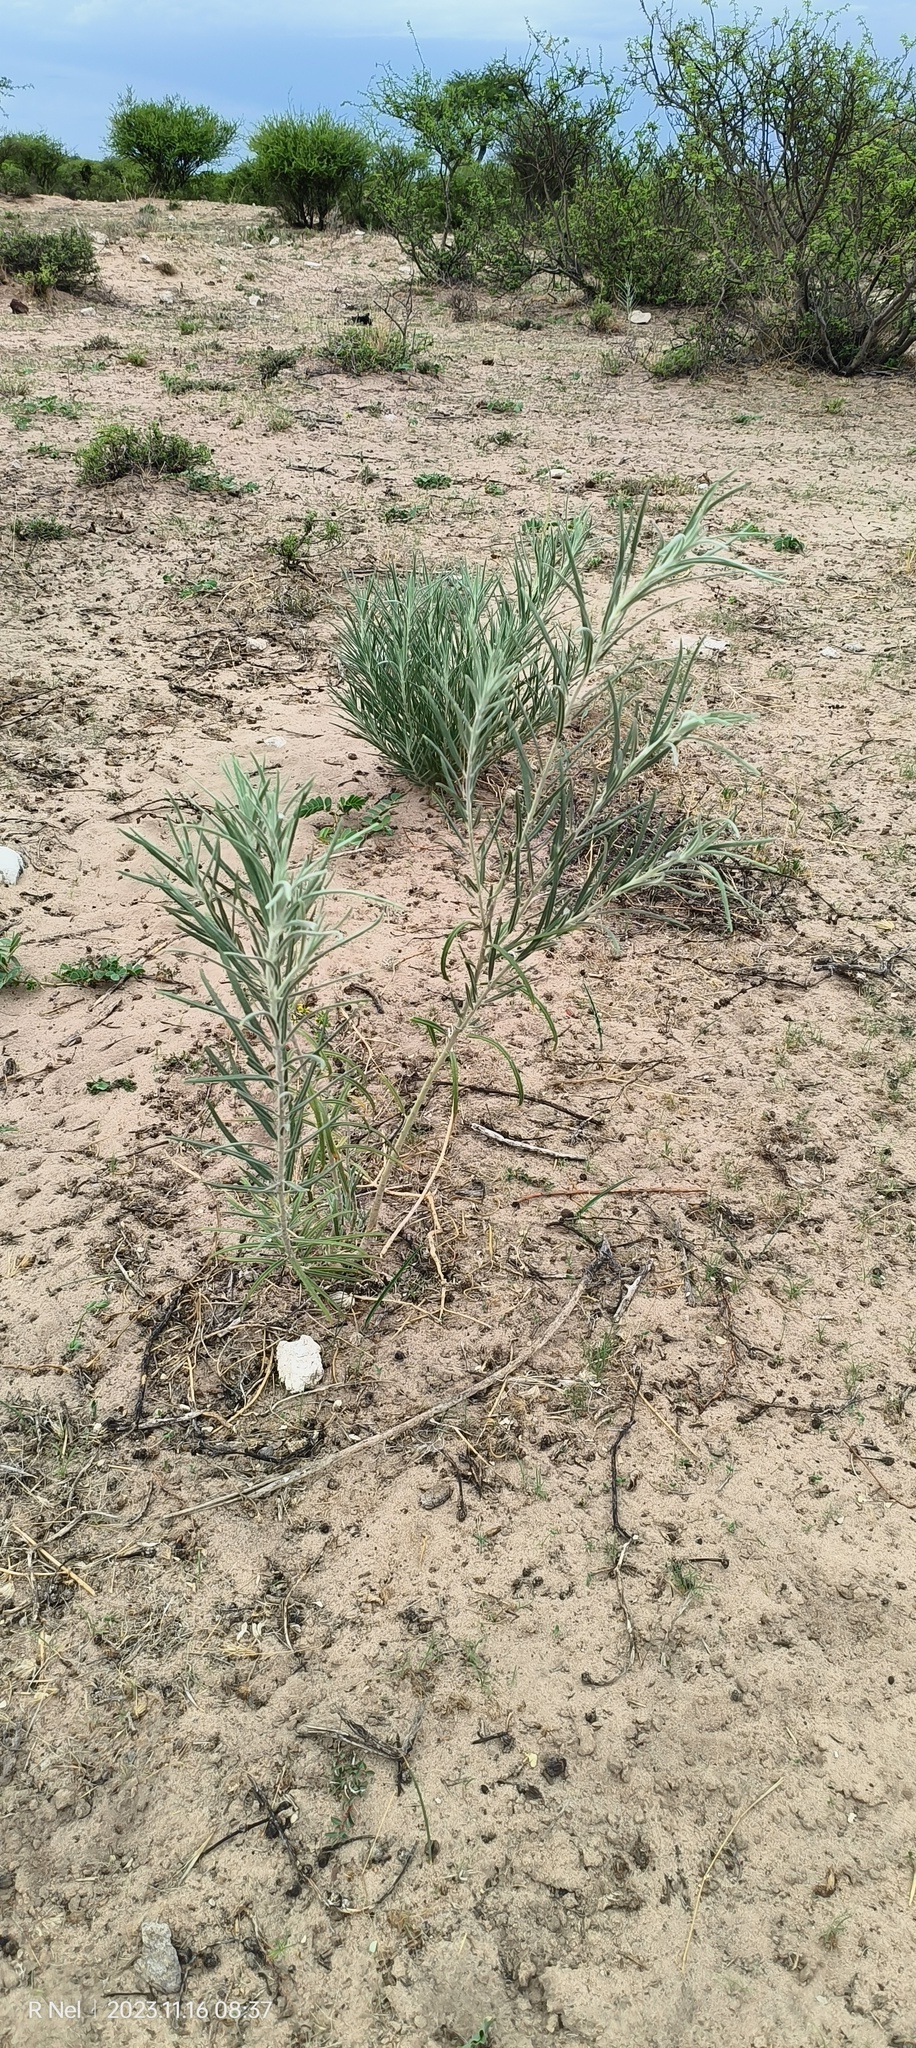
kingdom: Plantae
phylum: Tracheophyta
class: Magnoliopsida
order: Gentianales
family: Apocynaceae
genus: Gomphocarpus
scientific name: Gomphocarpus tomentosus
